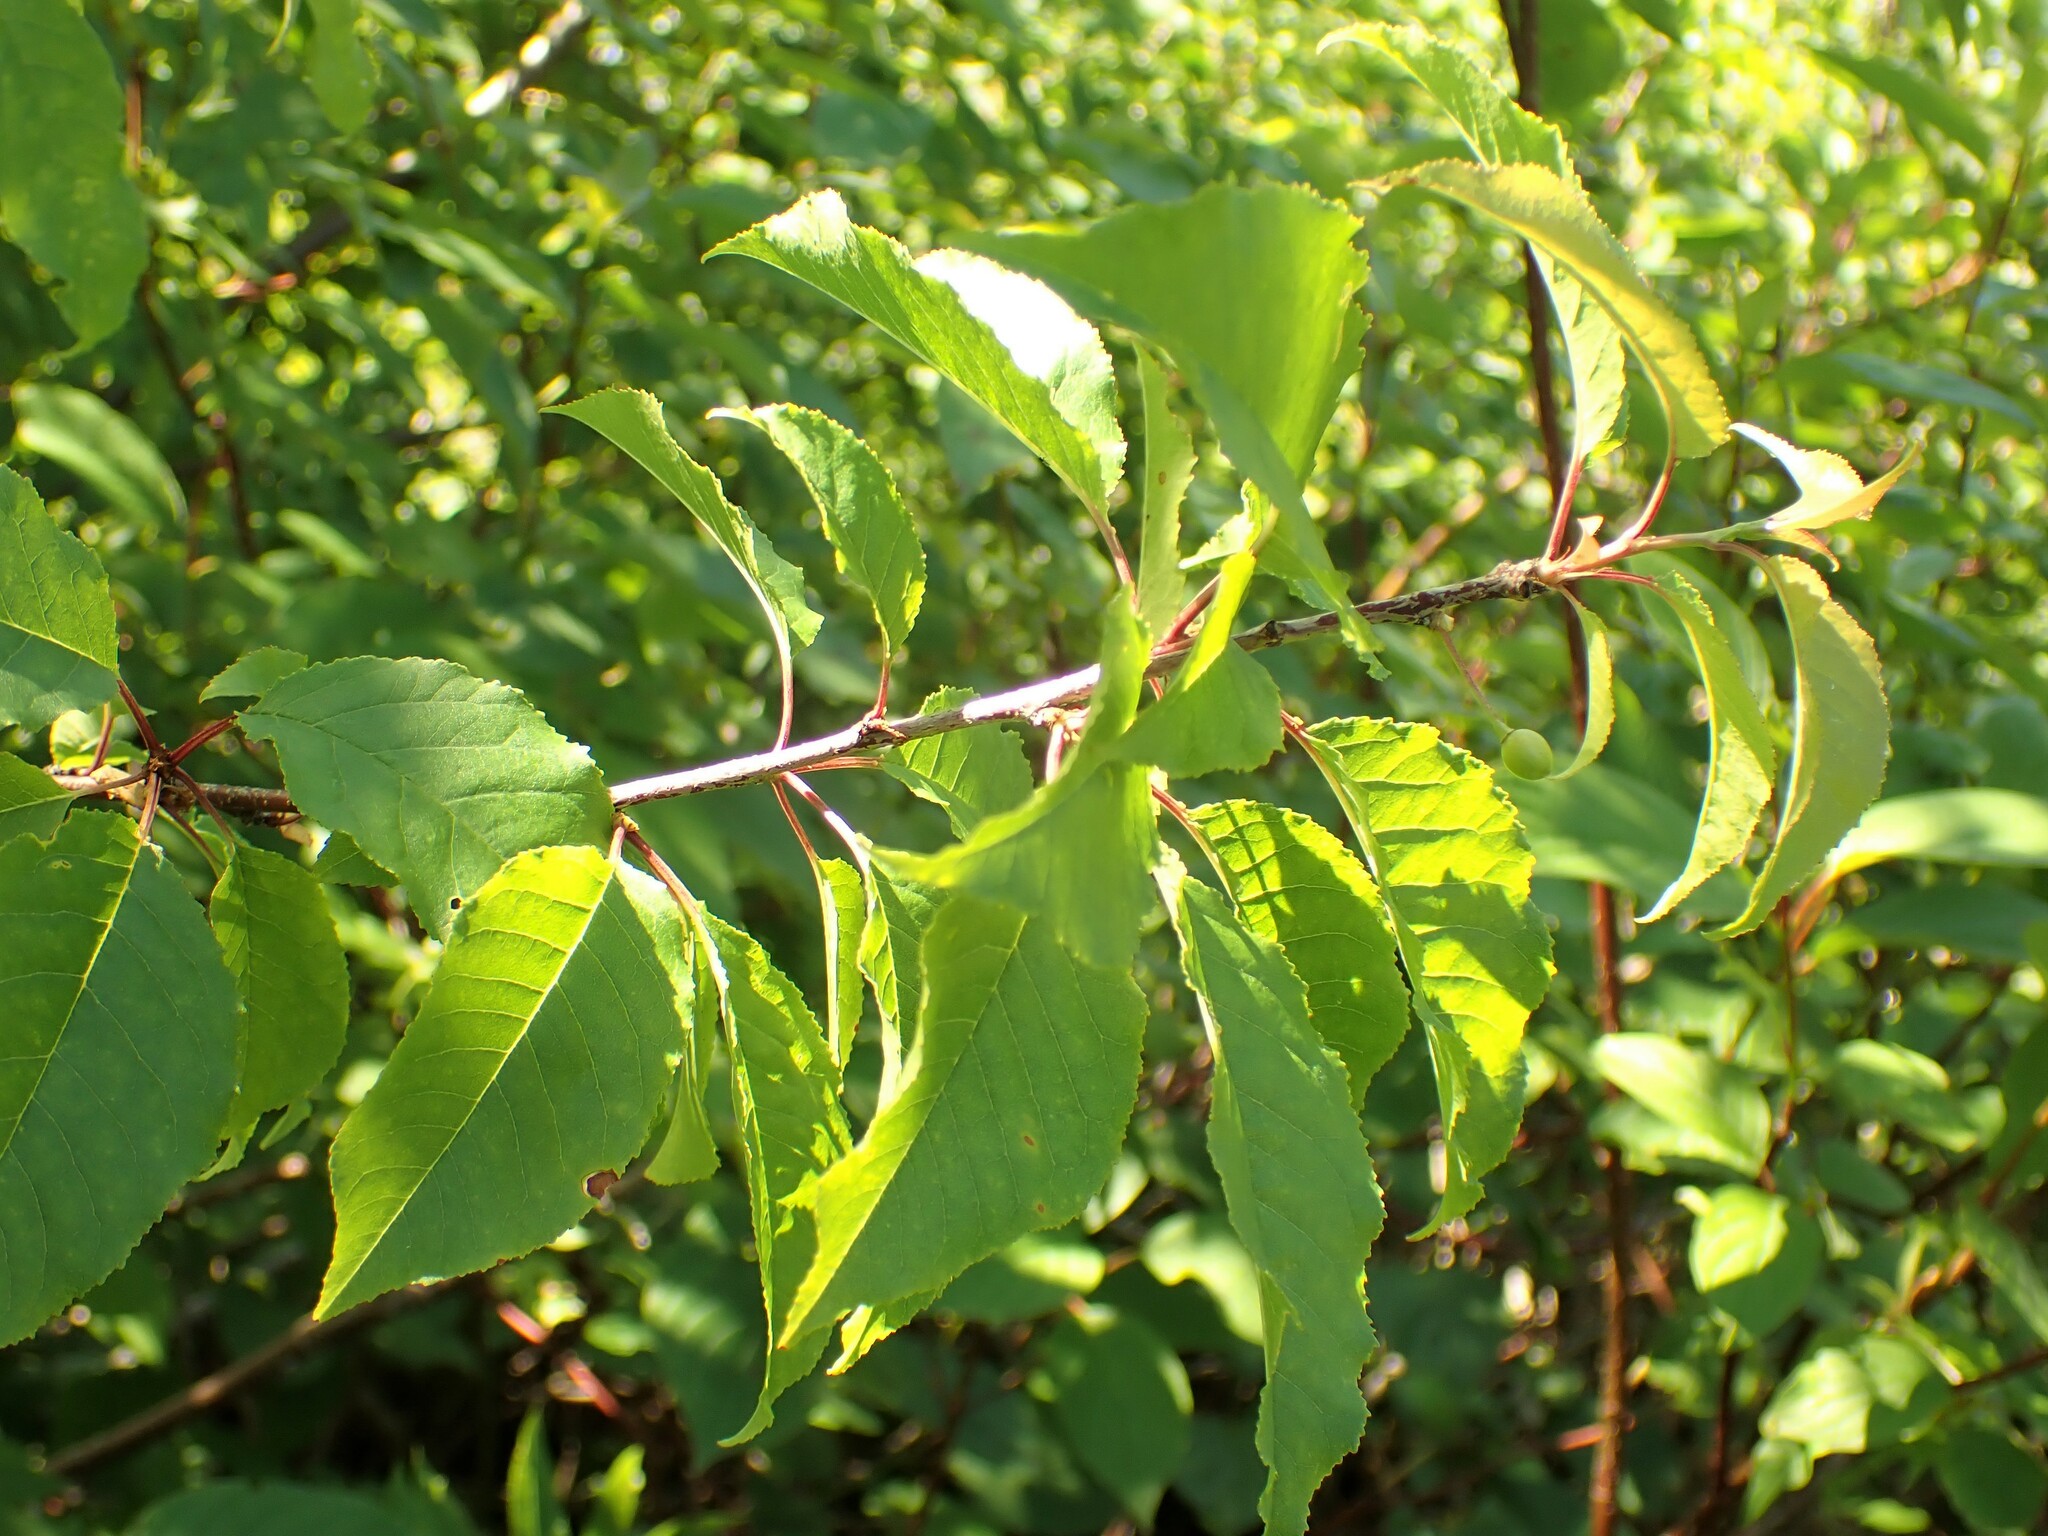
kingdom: Plantae
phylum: Tracheophyta
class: Magnoliopsida
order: Rosales
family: Rosaceae
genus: Prunus
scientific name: Prunus pensylvanica
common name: Pin cherry
